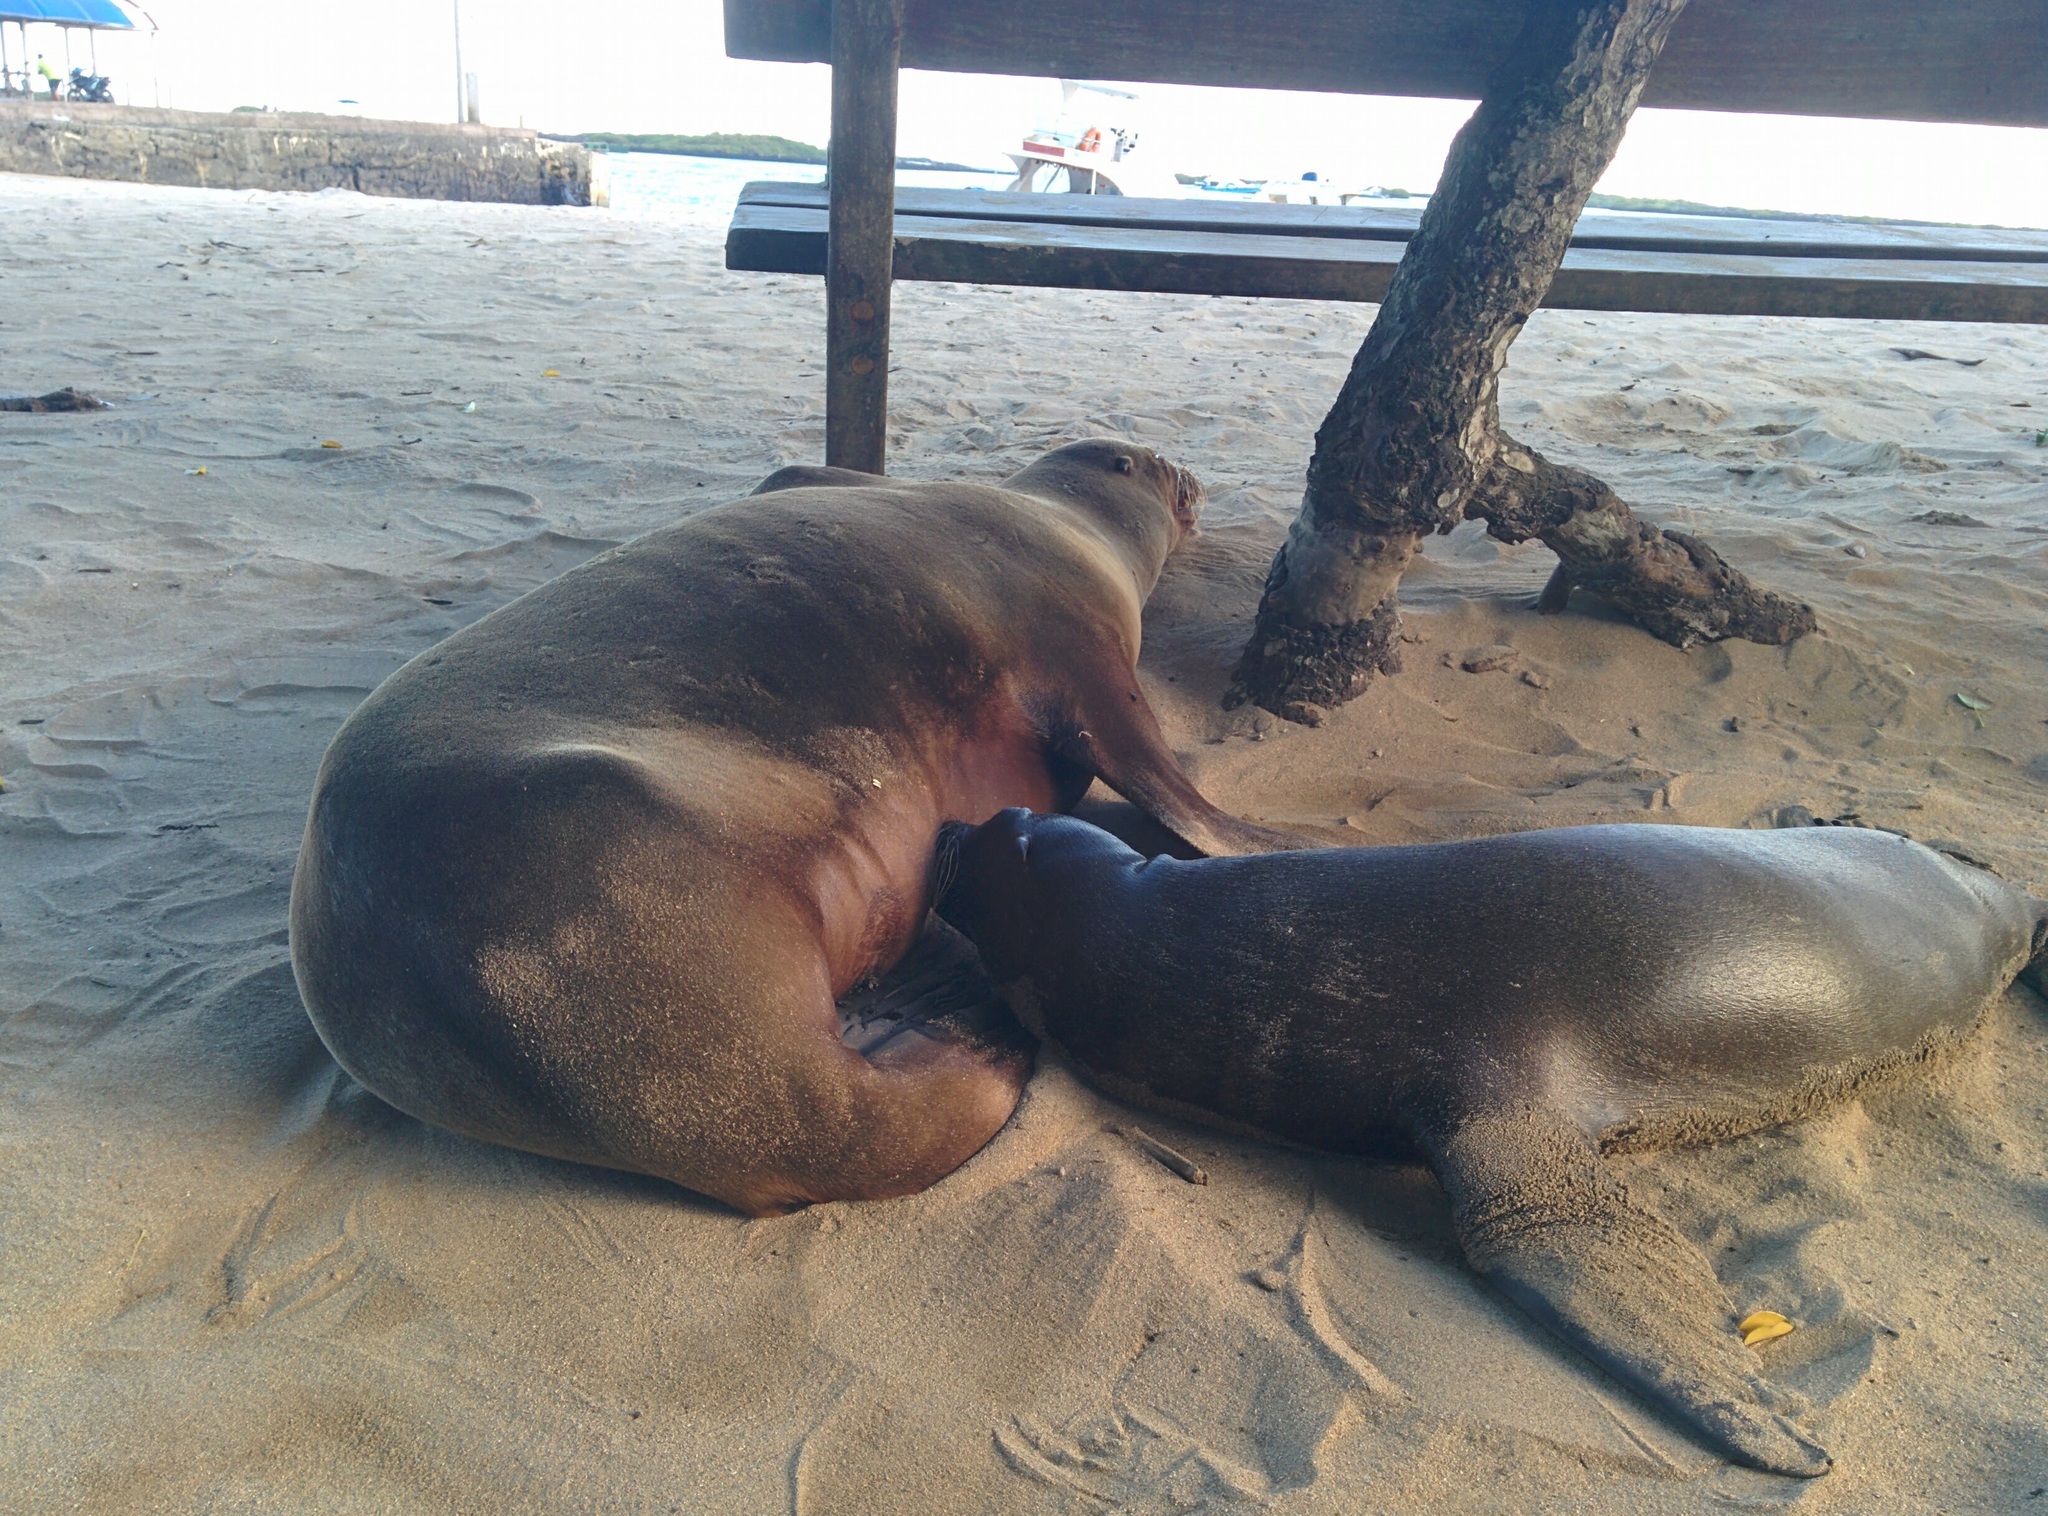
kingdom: Animalia
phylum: Chordata
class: Mammalia
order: Carnivora
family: Otariidae
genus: Zalophus
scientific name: Zalophus wollebaeki
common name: Galapagos sea lion
